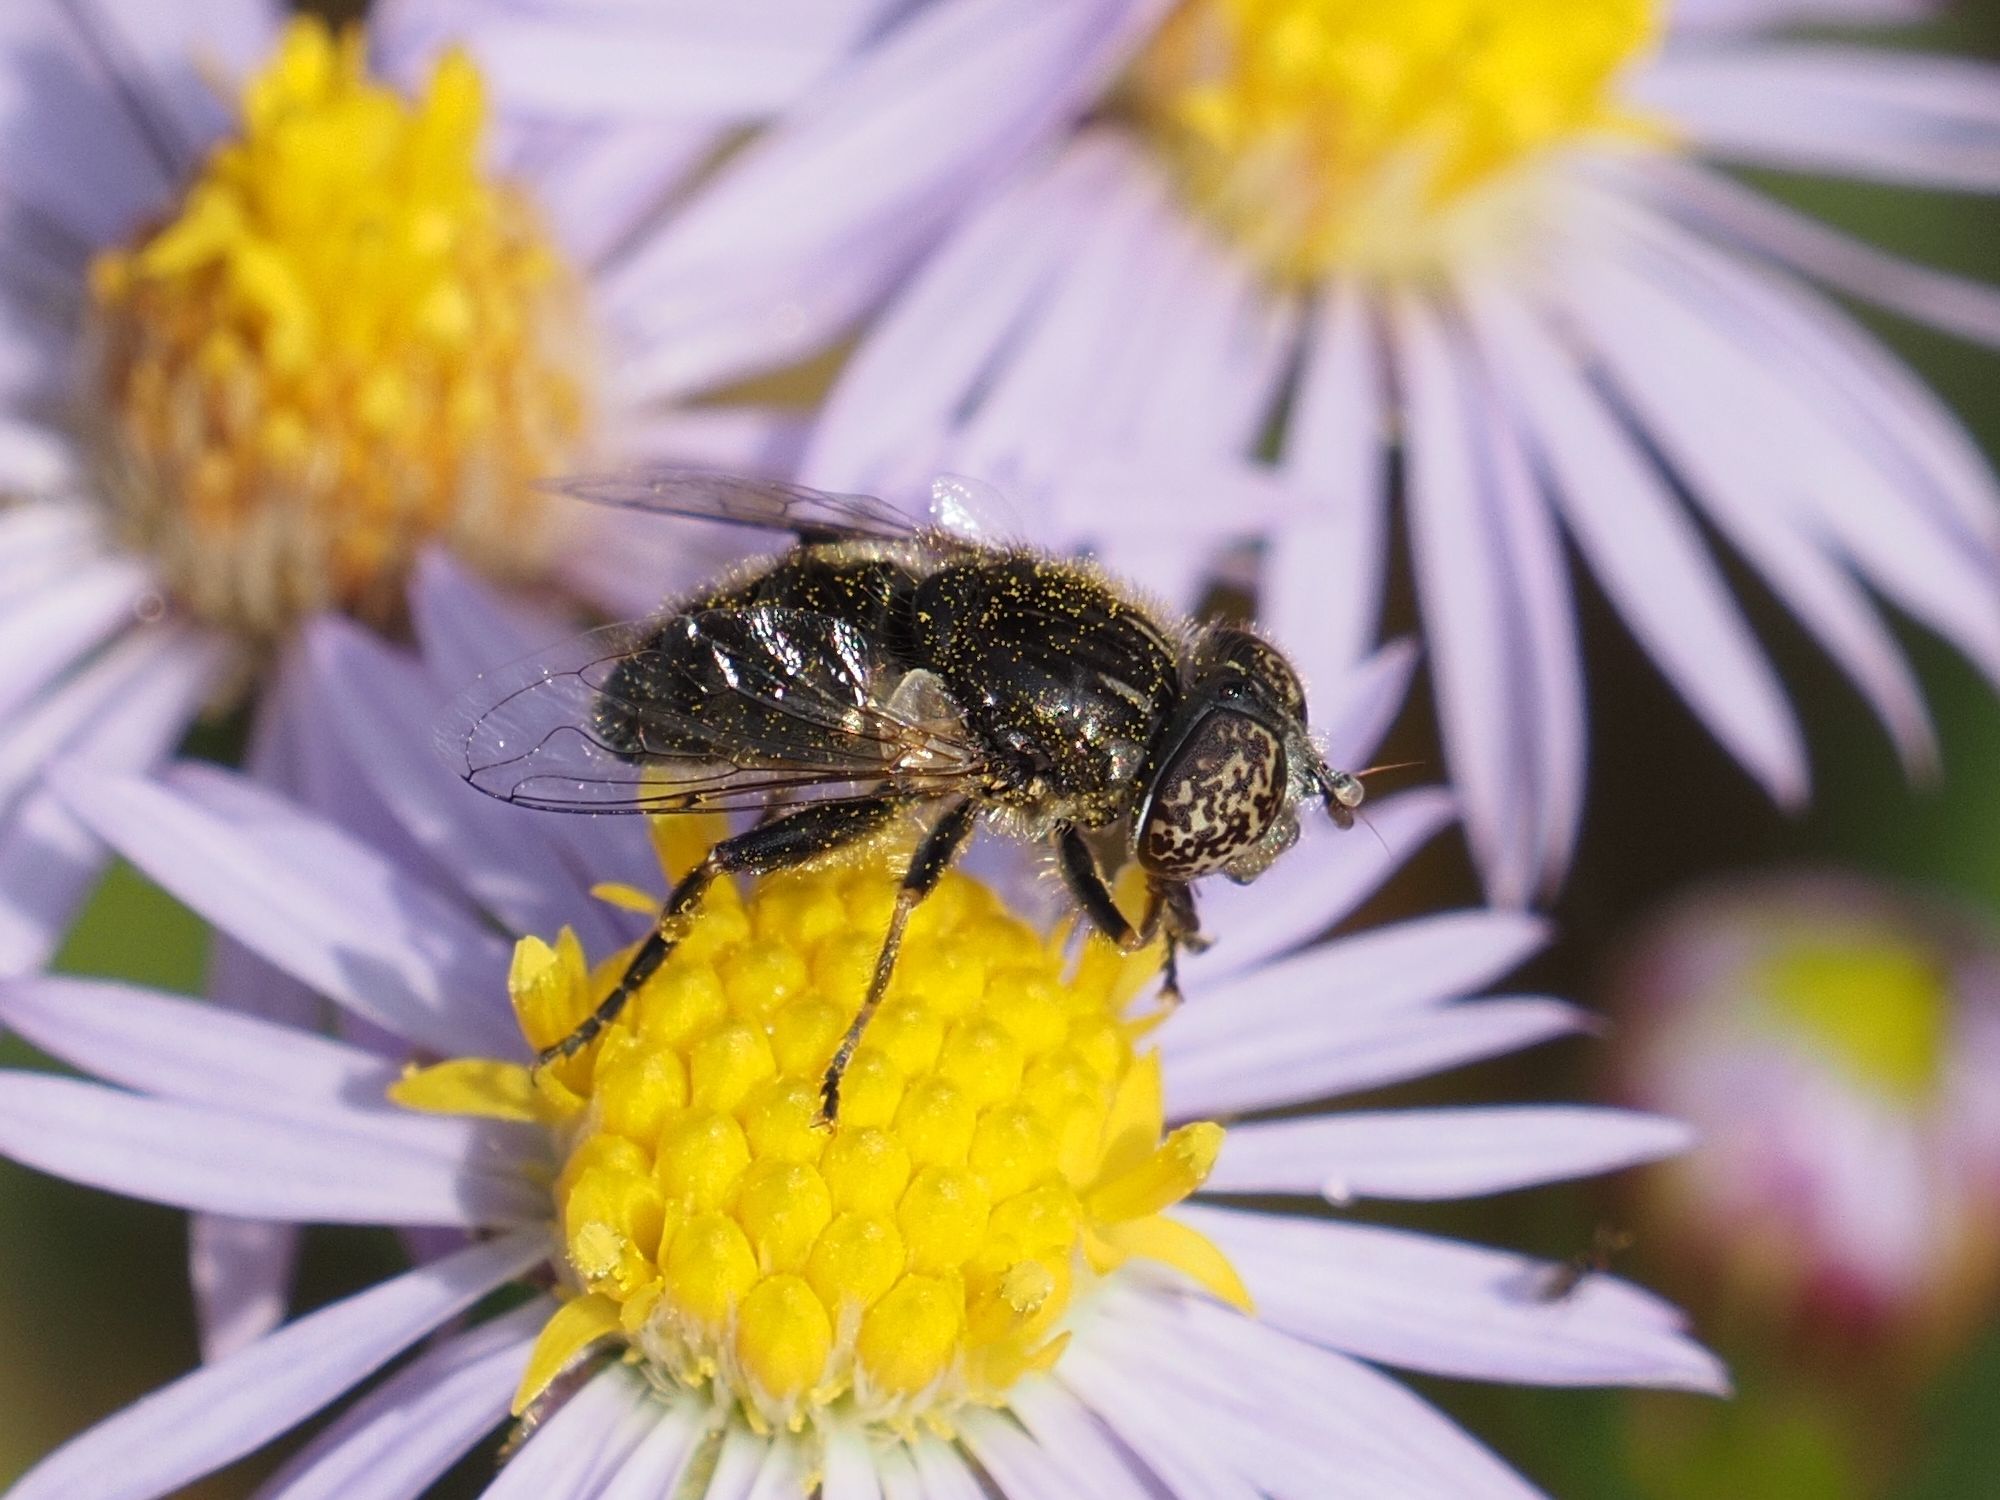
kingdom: Animalia
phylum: Arthropoda
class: Insecta
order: Diptera
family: Syrphidae
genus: Eristalinus
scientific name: Eristalinus sepulchralis
